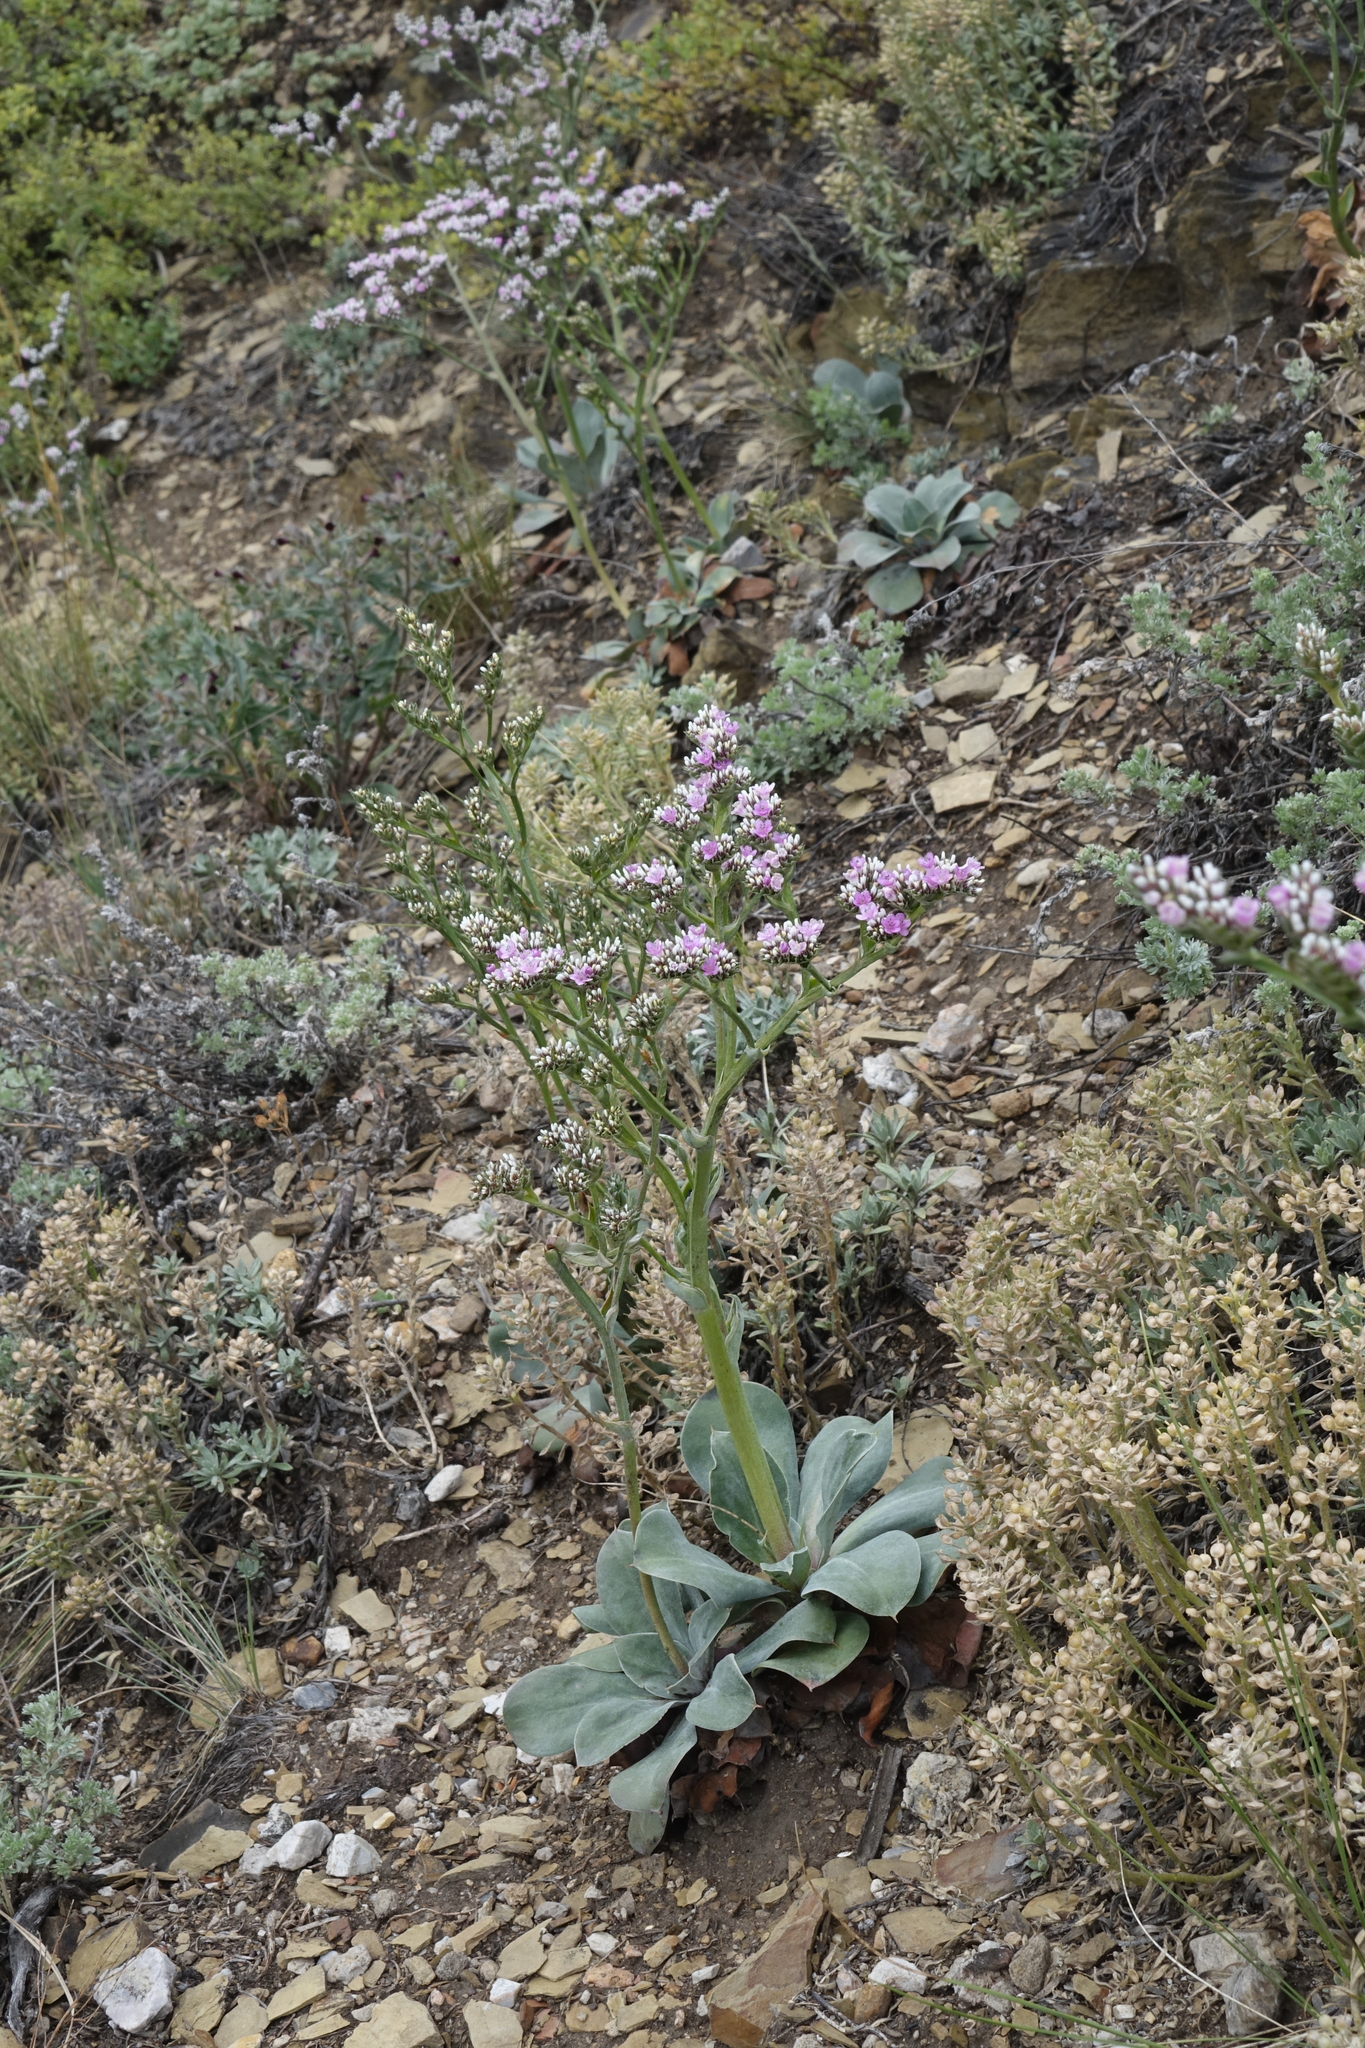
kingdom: Plantae
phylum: Tracheophyta
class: Magnoliopsida
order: Caryophyllales
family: Plumbaginaceae
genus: Goniolimon
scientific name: Goniolimon speciosum
